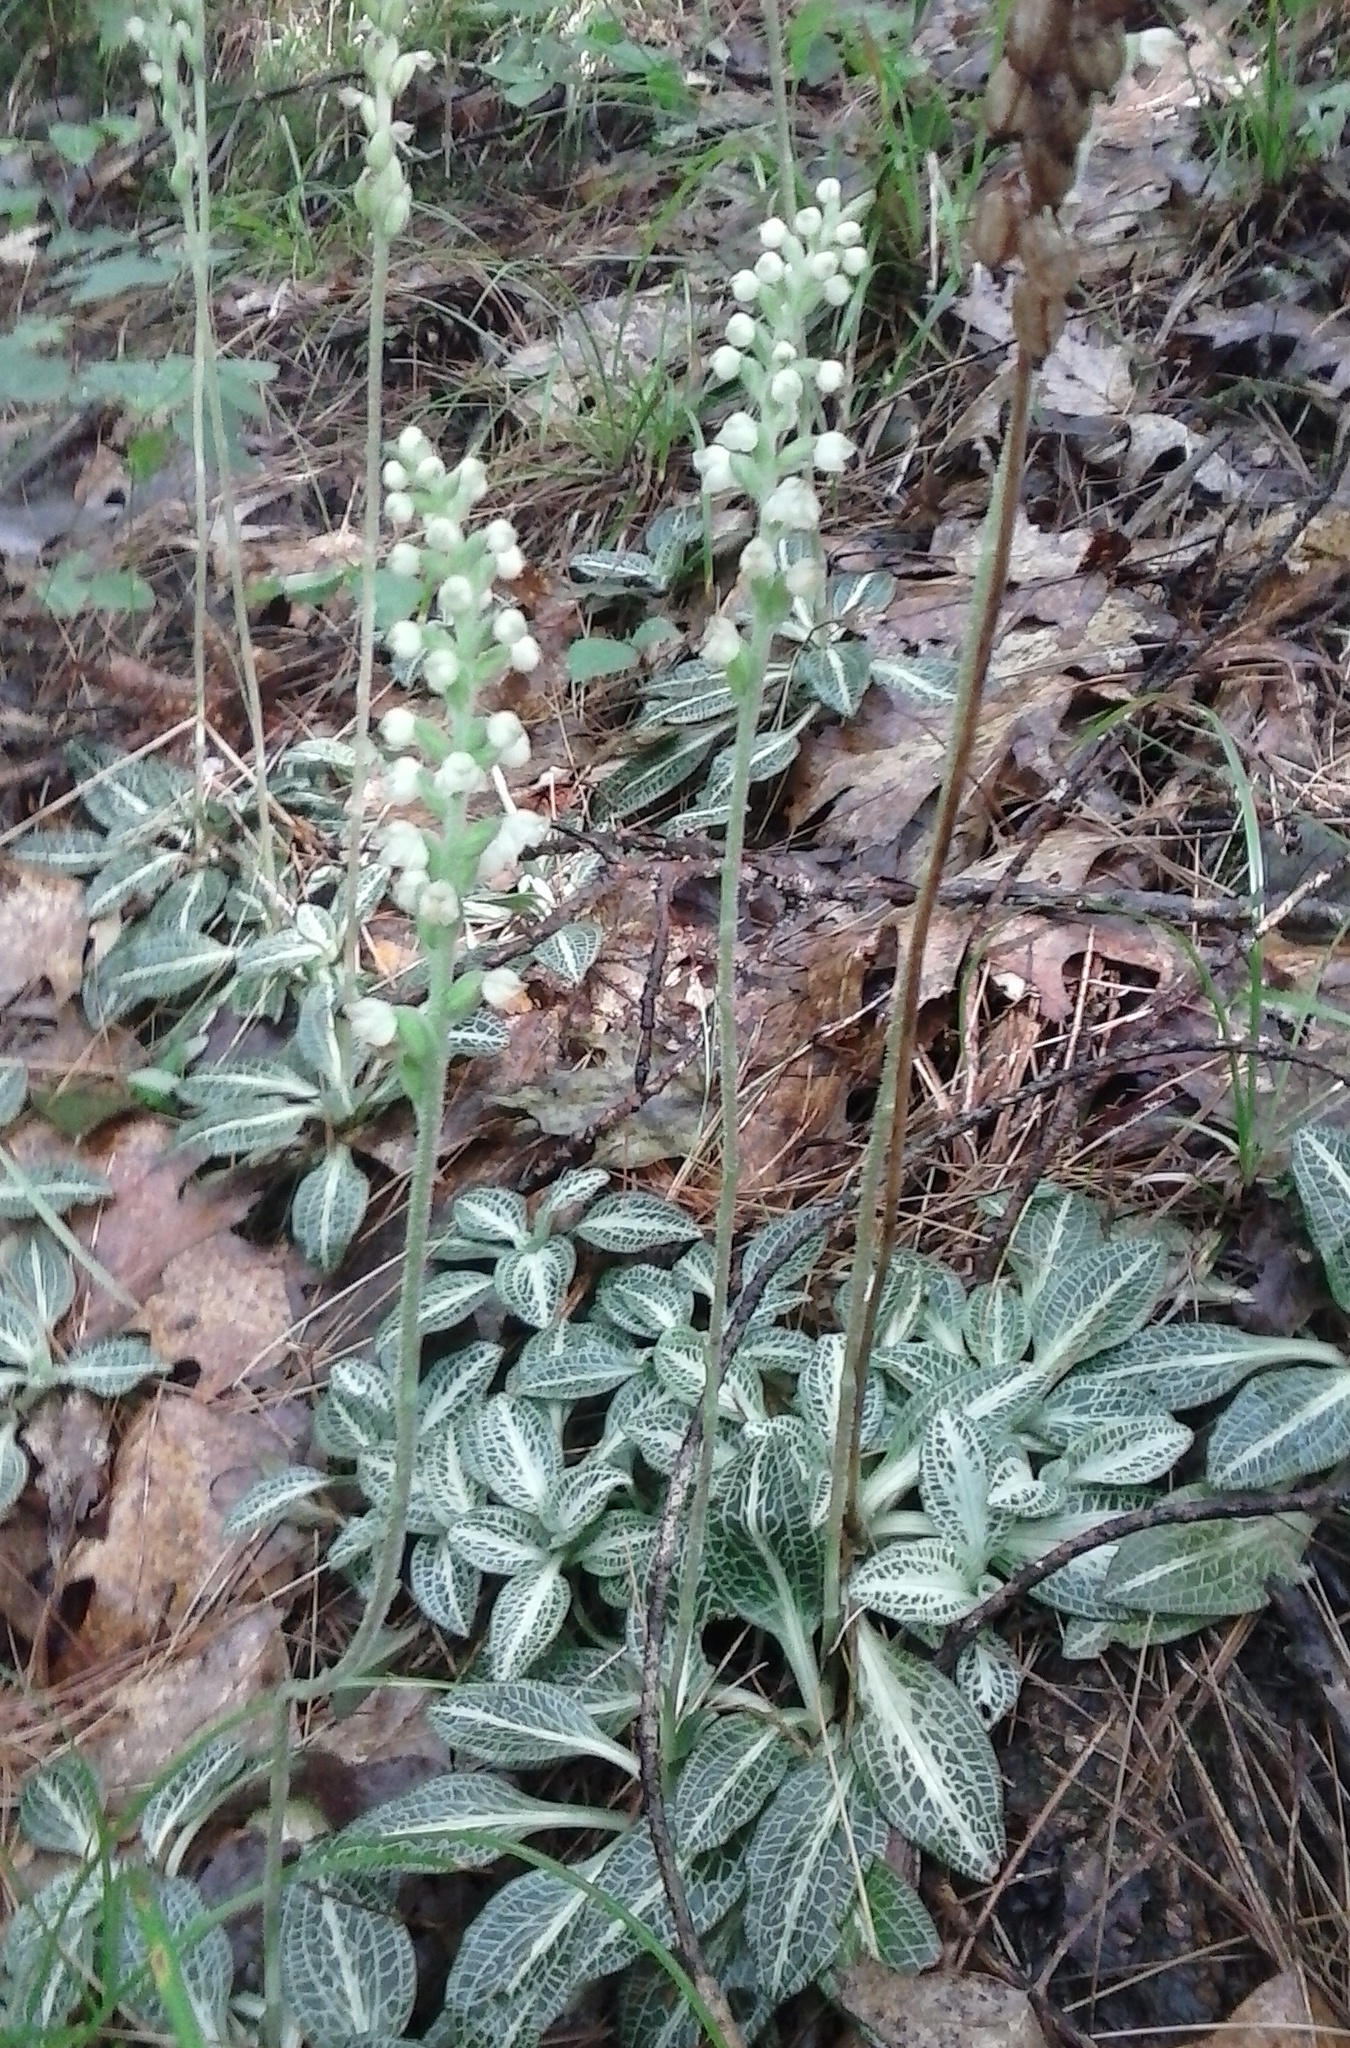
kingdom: Plantae
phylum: Tracheophyta
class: Liliopsida
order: Asparagales
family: Orchidaceae
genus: Goodyera
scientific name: Goodyera pubescens
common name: Downy rattlesnake-plantain
